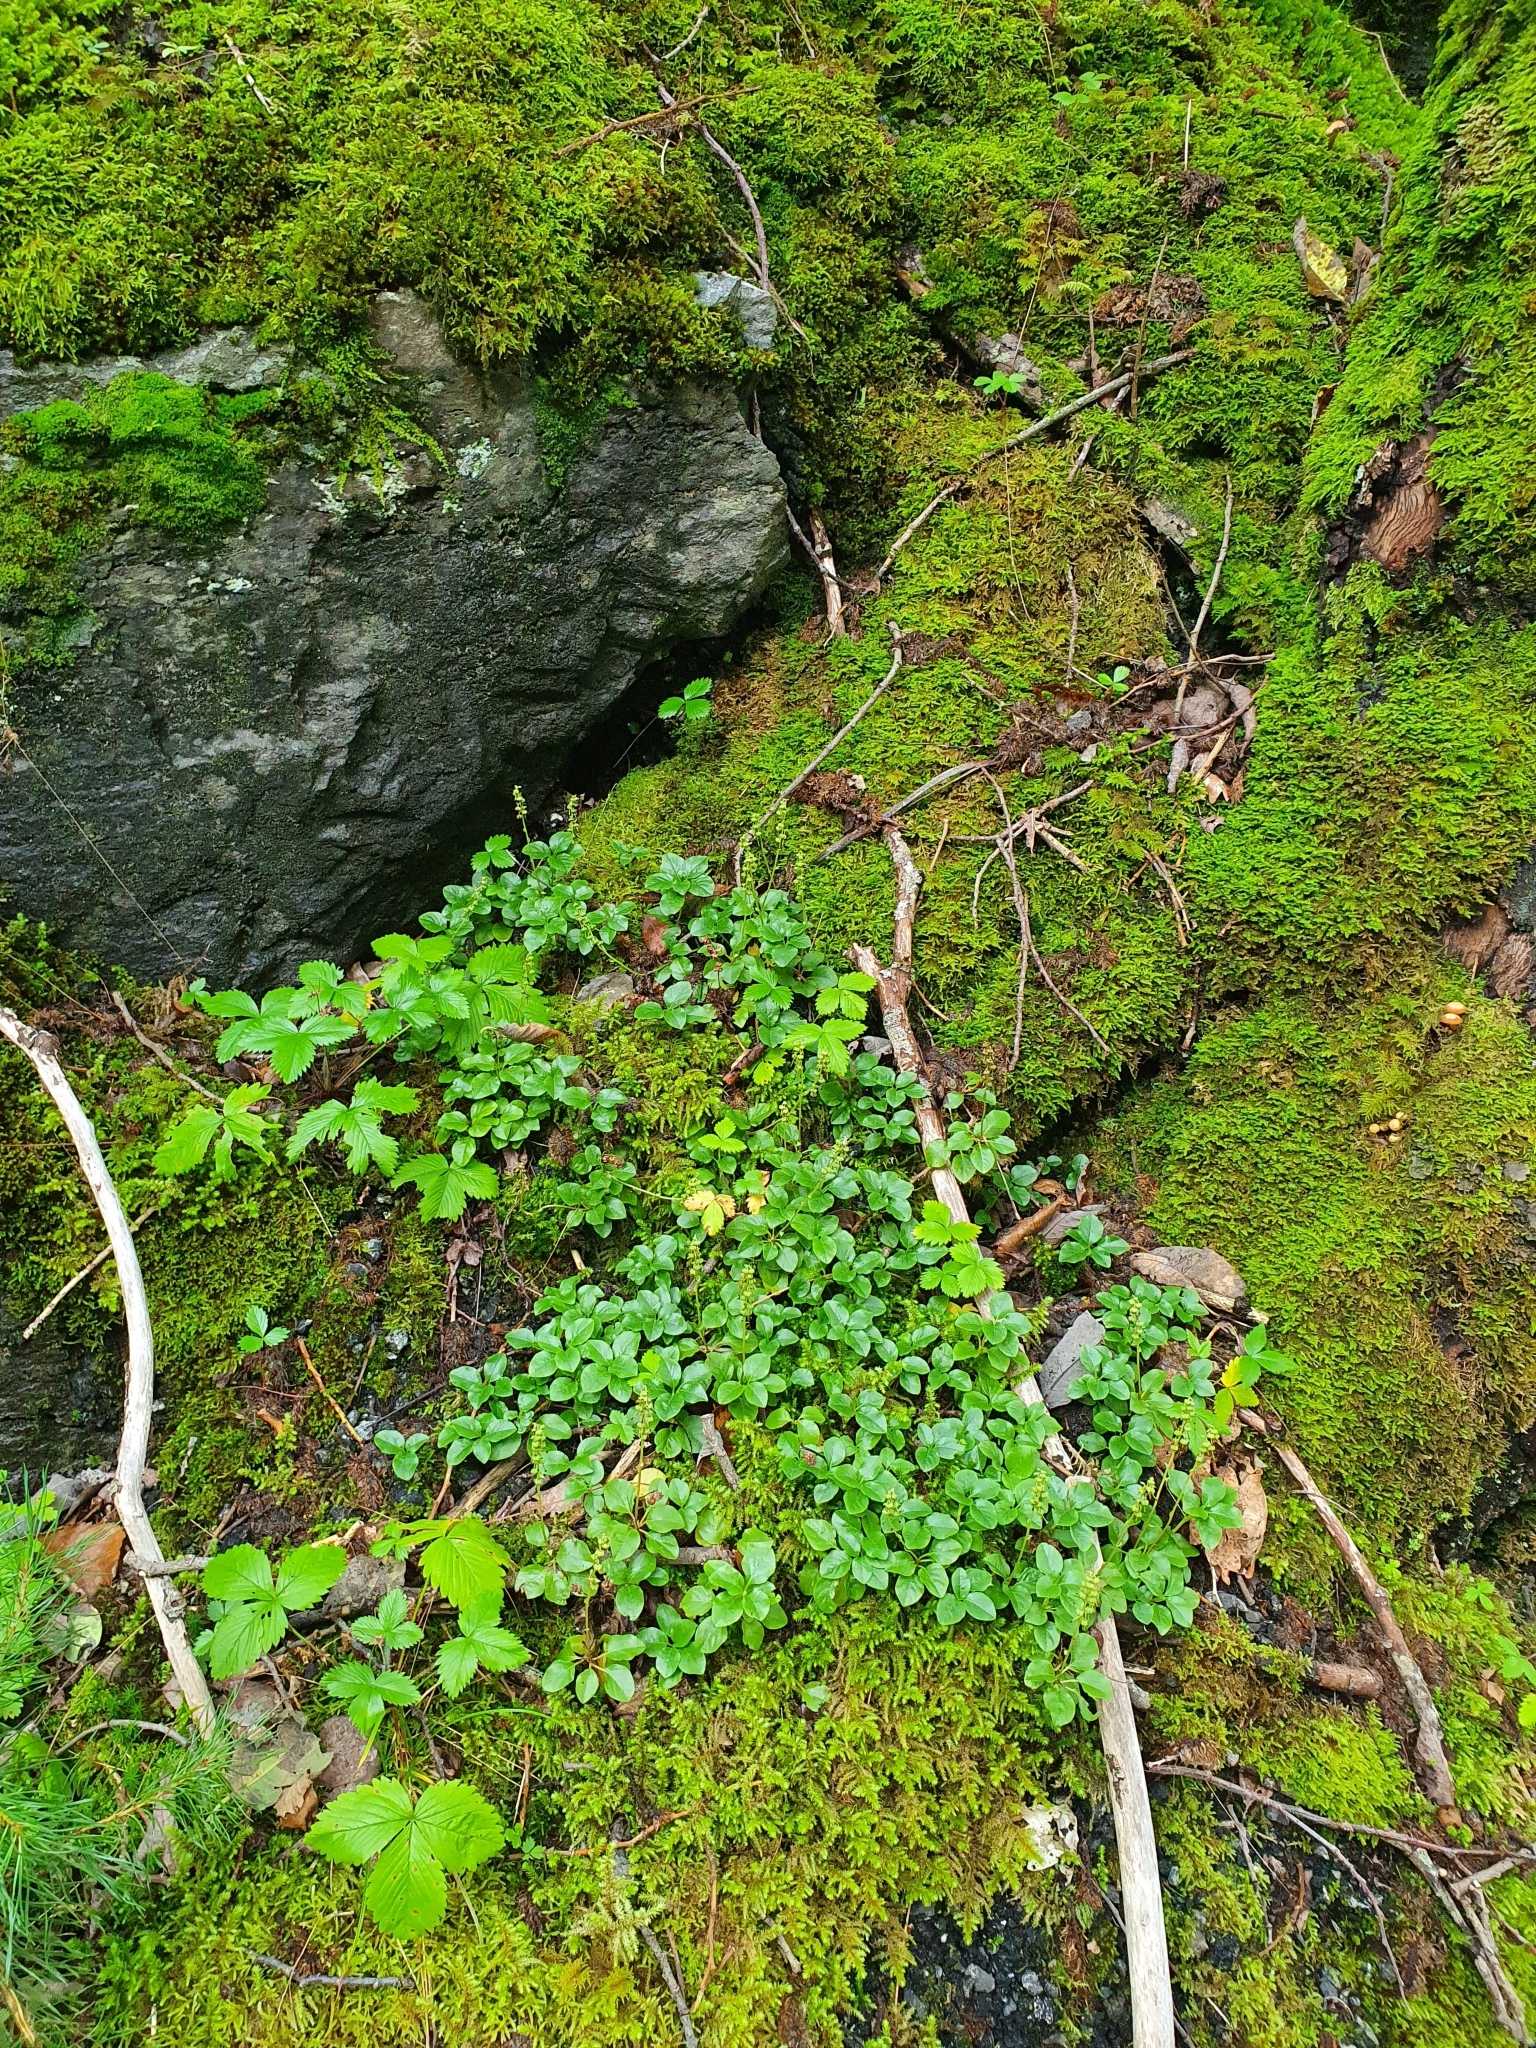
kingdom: Plantae
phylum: Tracheophyta
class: Magnoliopsida
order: Ericales
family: Ericaceae
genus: Orthilia
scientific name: Orthilia secunda
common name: One-sided orthilia
